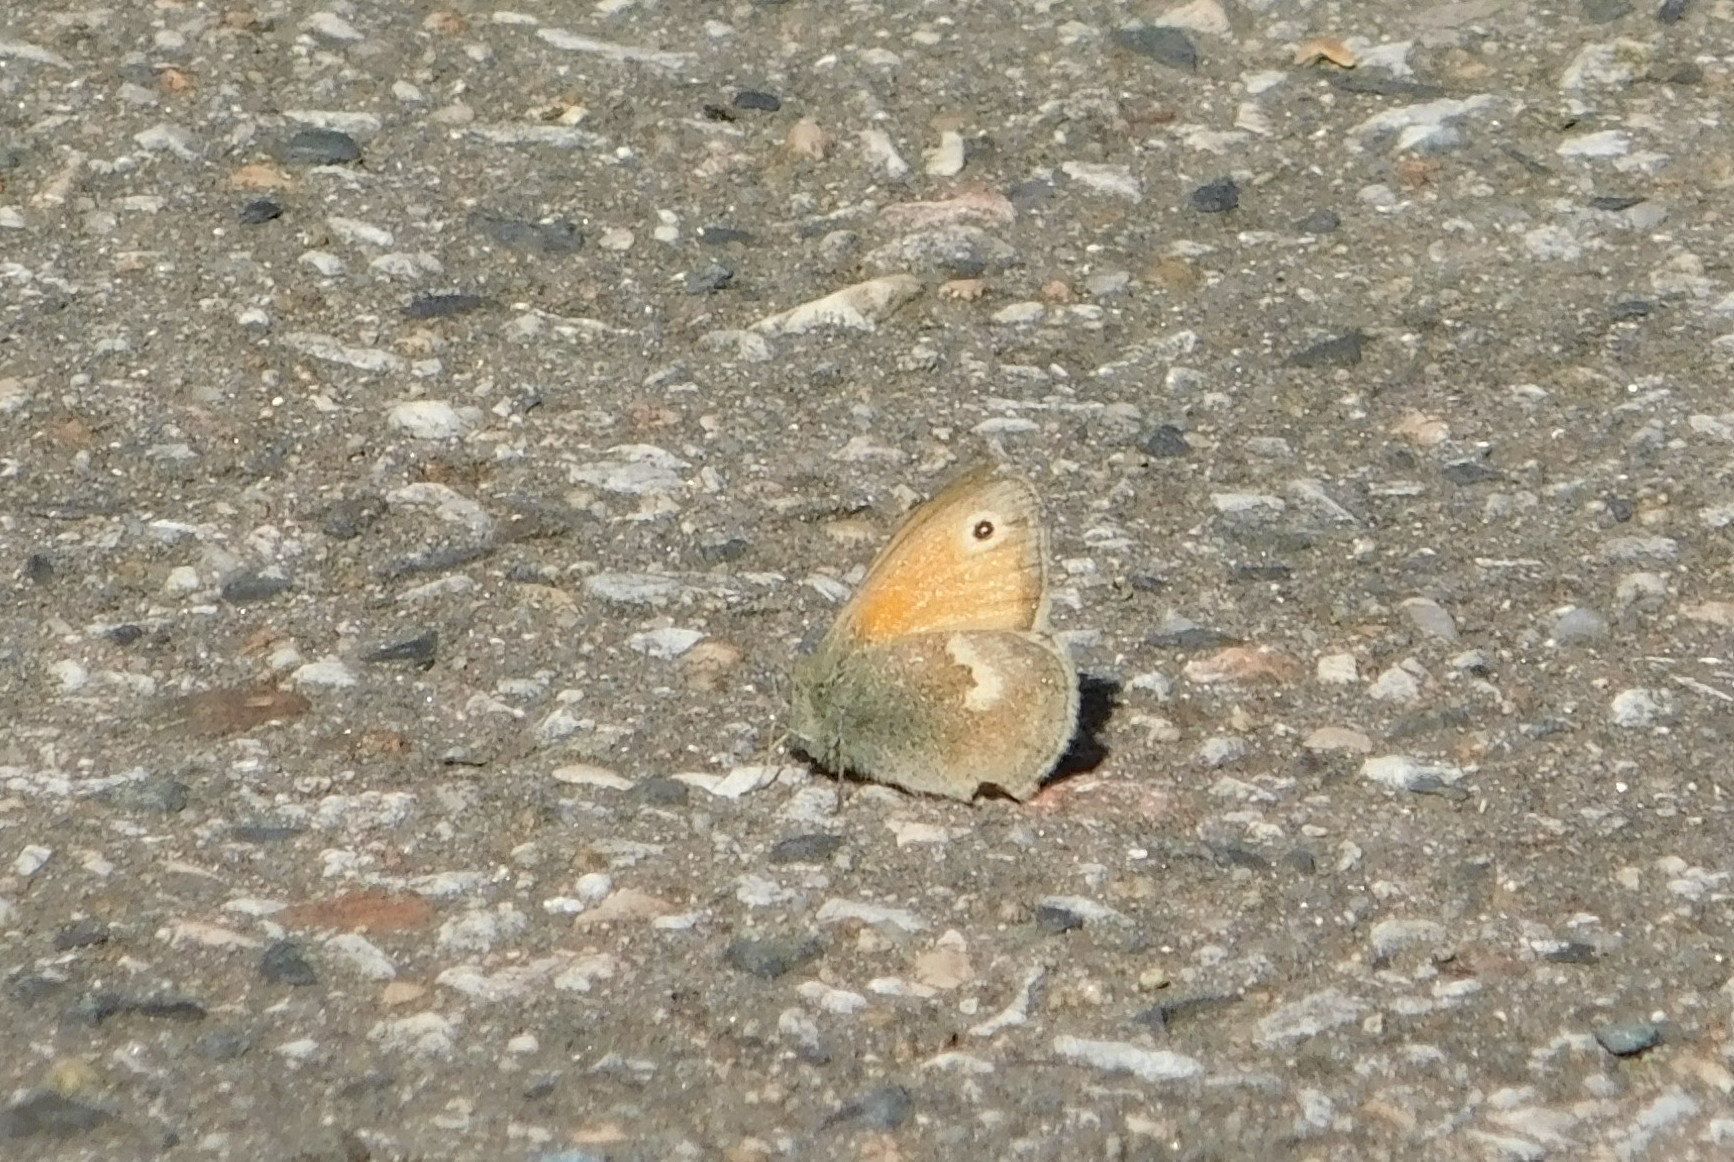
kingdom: Animalia
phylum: Arthropoda
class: Insecta
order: Lepidoptera
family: Nymphalidae
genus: Coenonympha
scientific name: Coenonympha pamphilus
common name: Small heath
